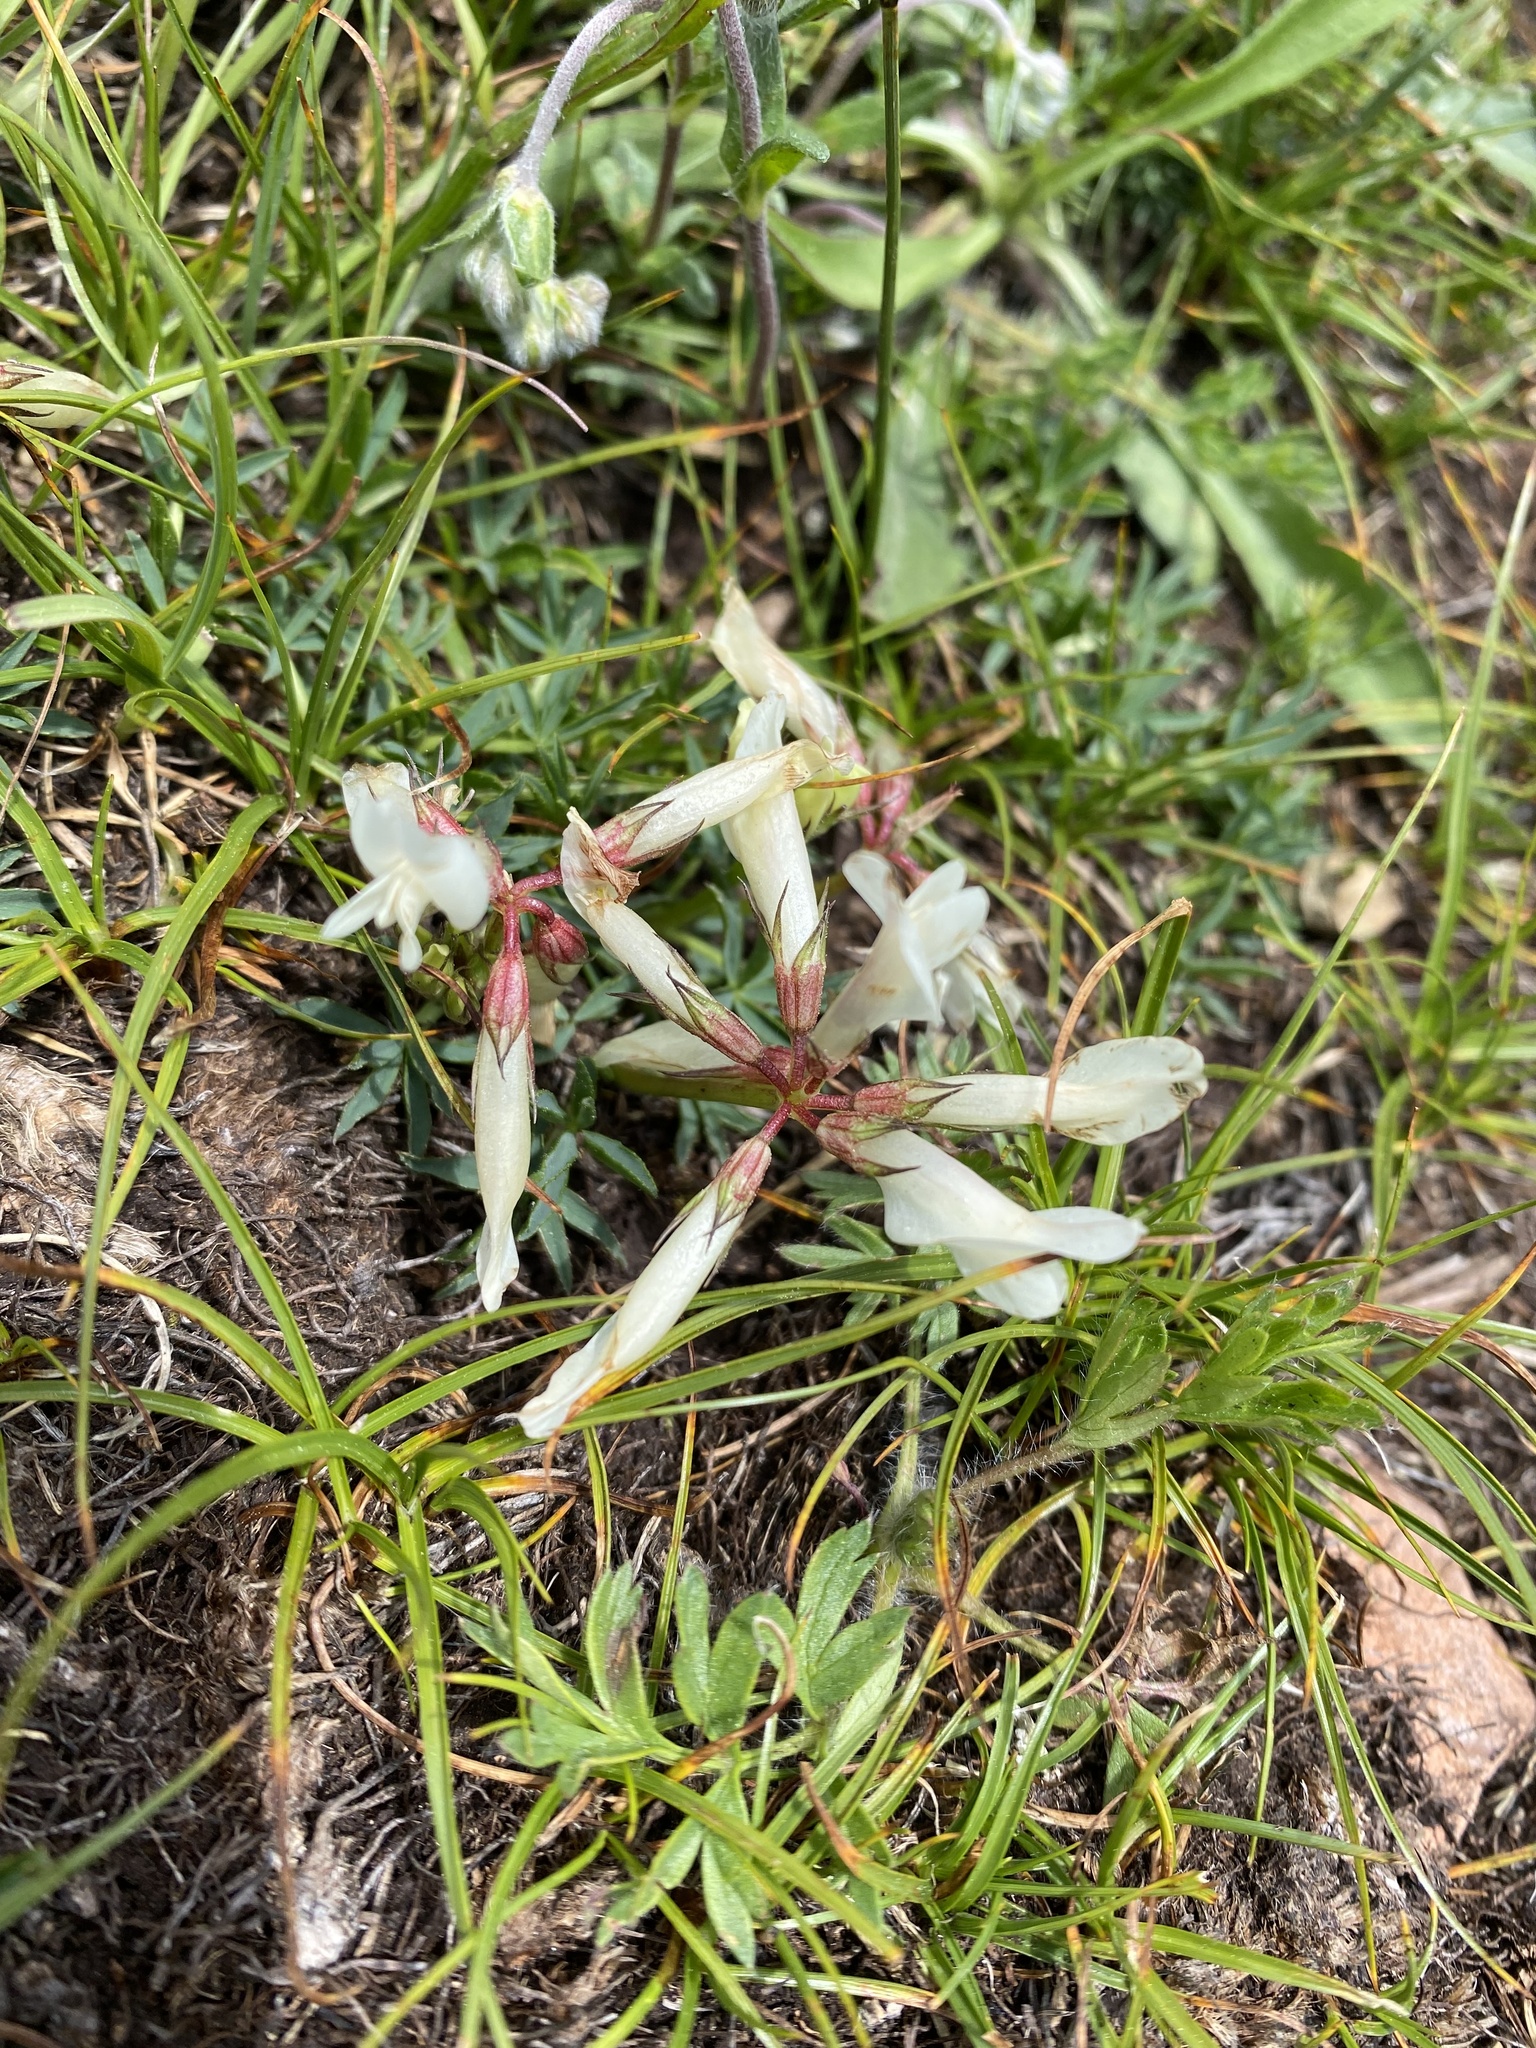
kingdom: Plantae
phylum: Tracheophyta
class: Magnoliopsida
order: Fabales
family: Fabaceae
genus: Trifolium
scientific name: Trifolium polyphyllum
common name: Many-leaf clover
